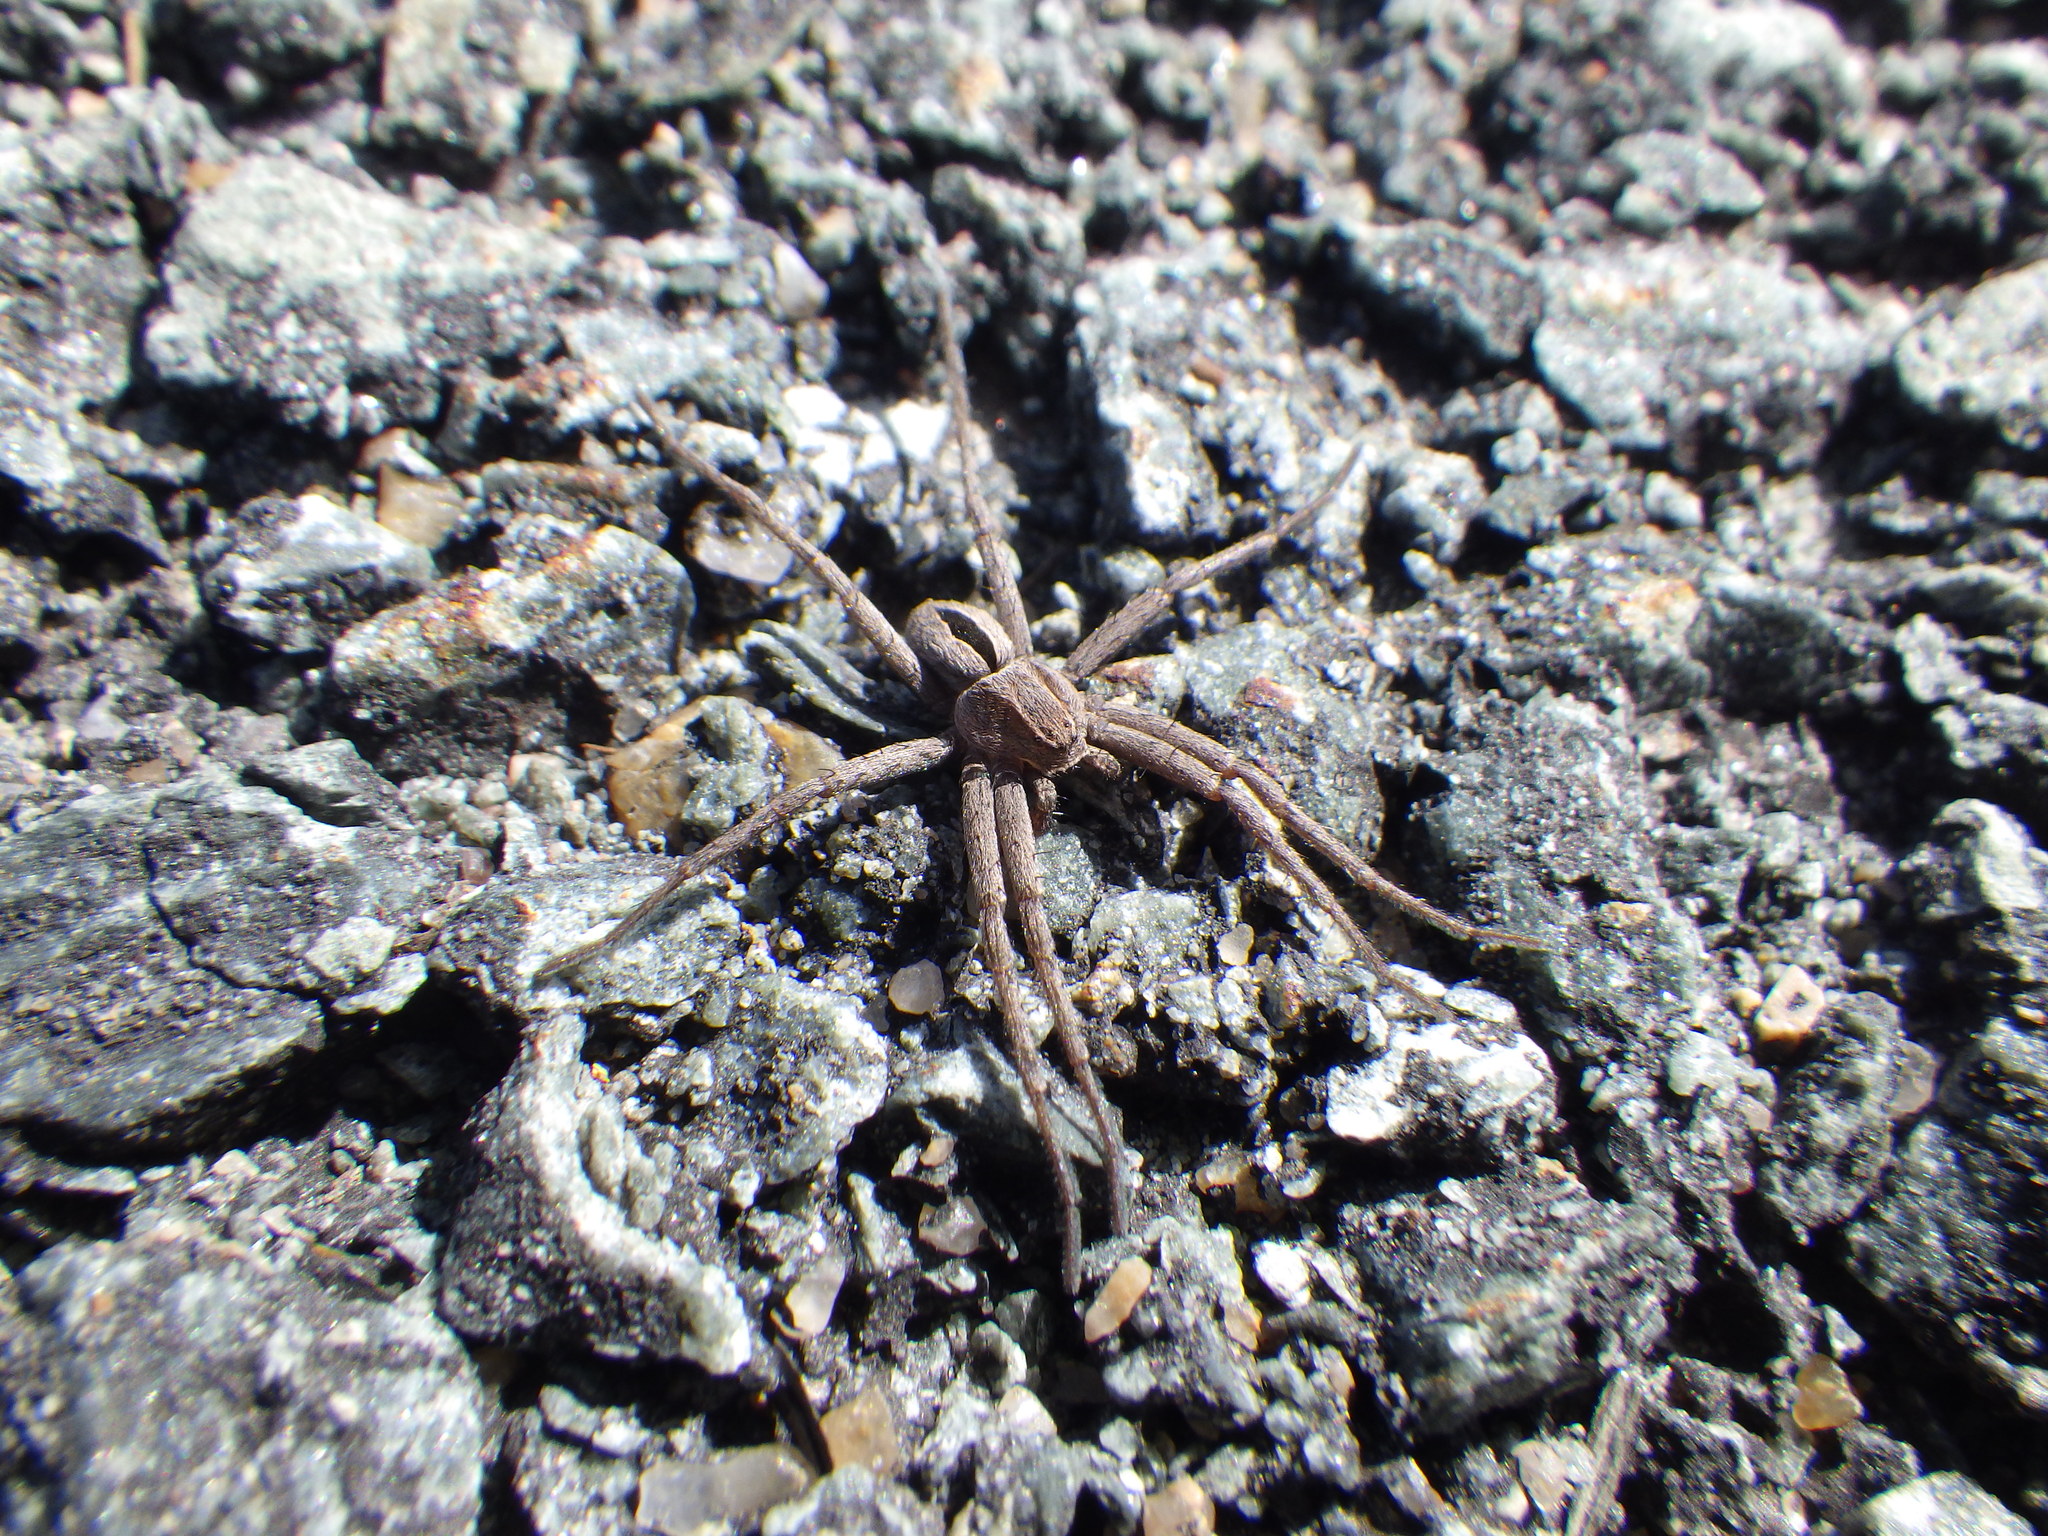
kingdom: Animalia
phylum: Arthropoda
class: Arachnida
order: Araneae
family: Philodromidae
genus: Thanatus
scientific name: Thanatus formicinus
